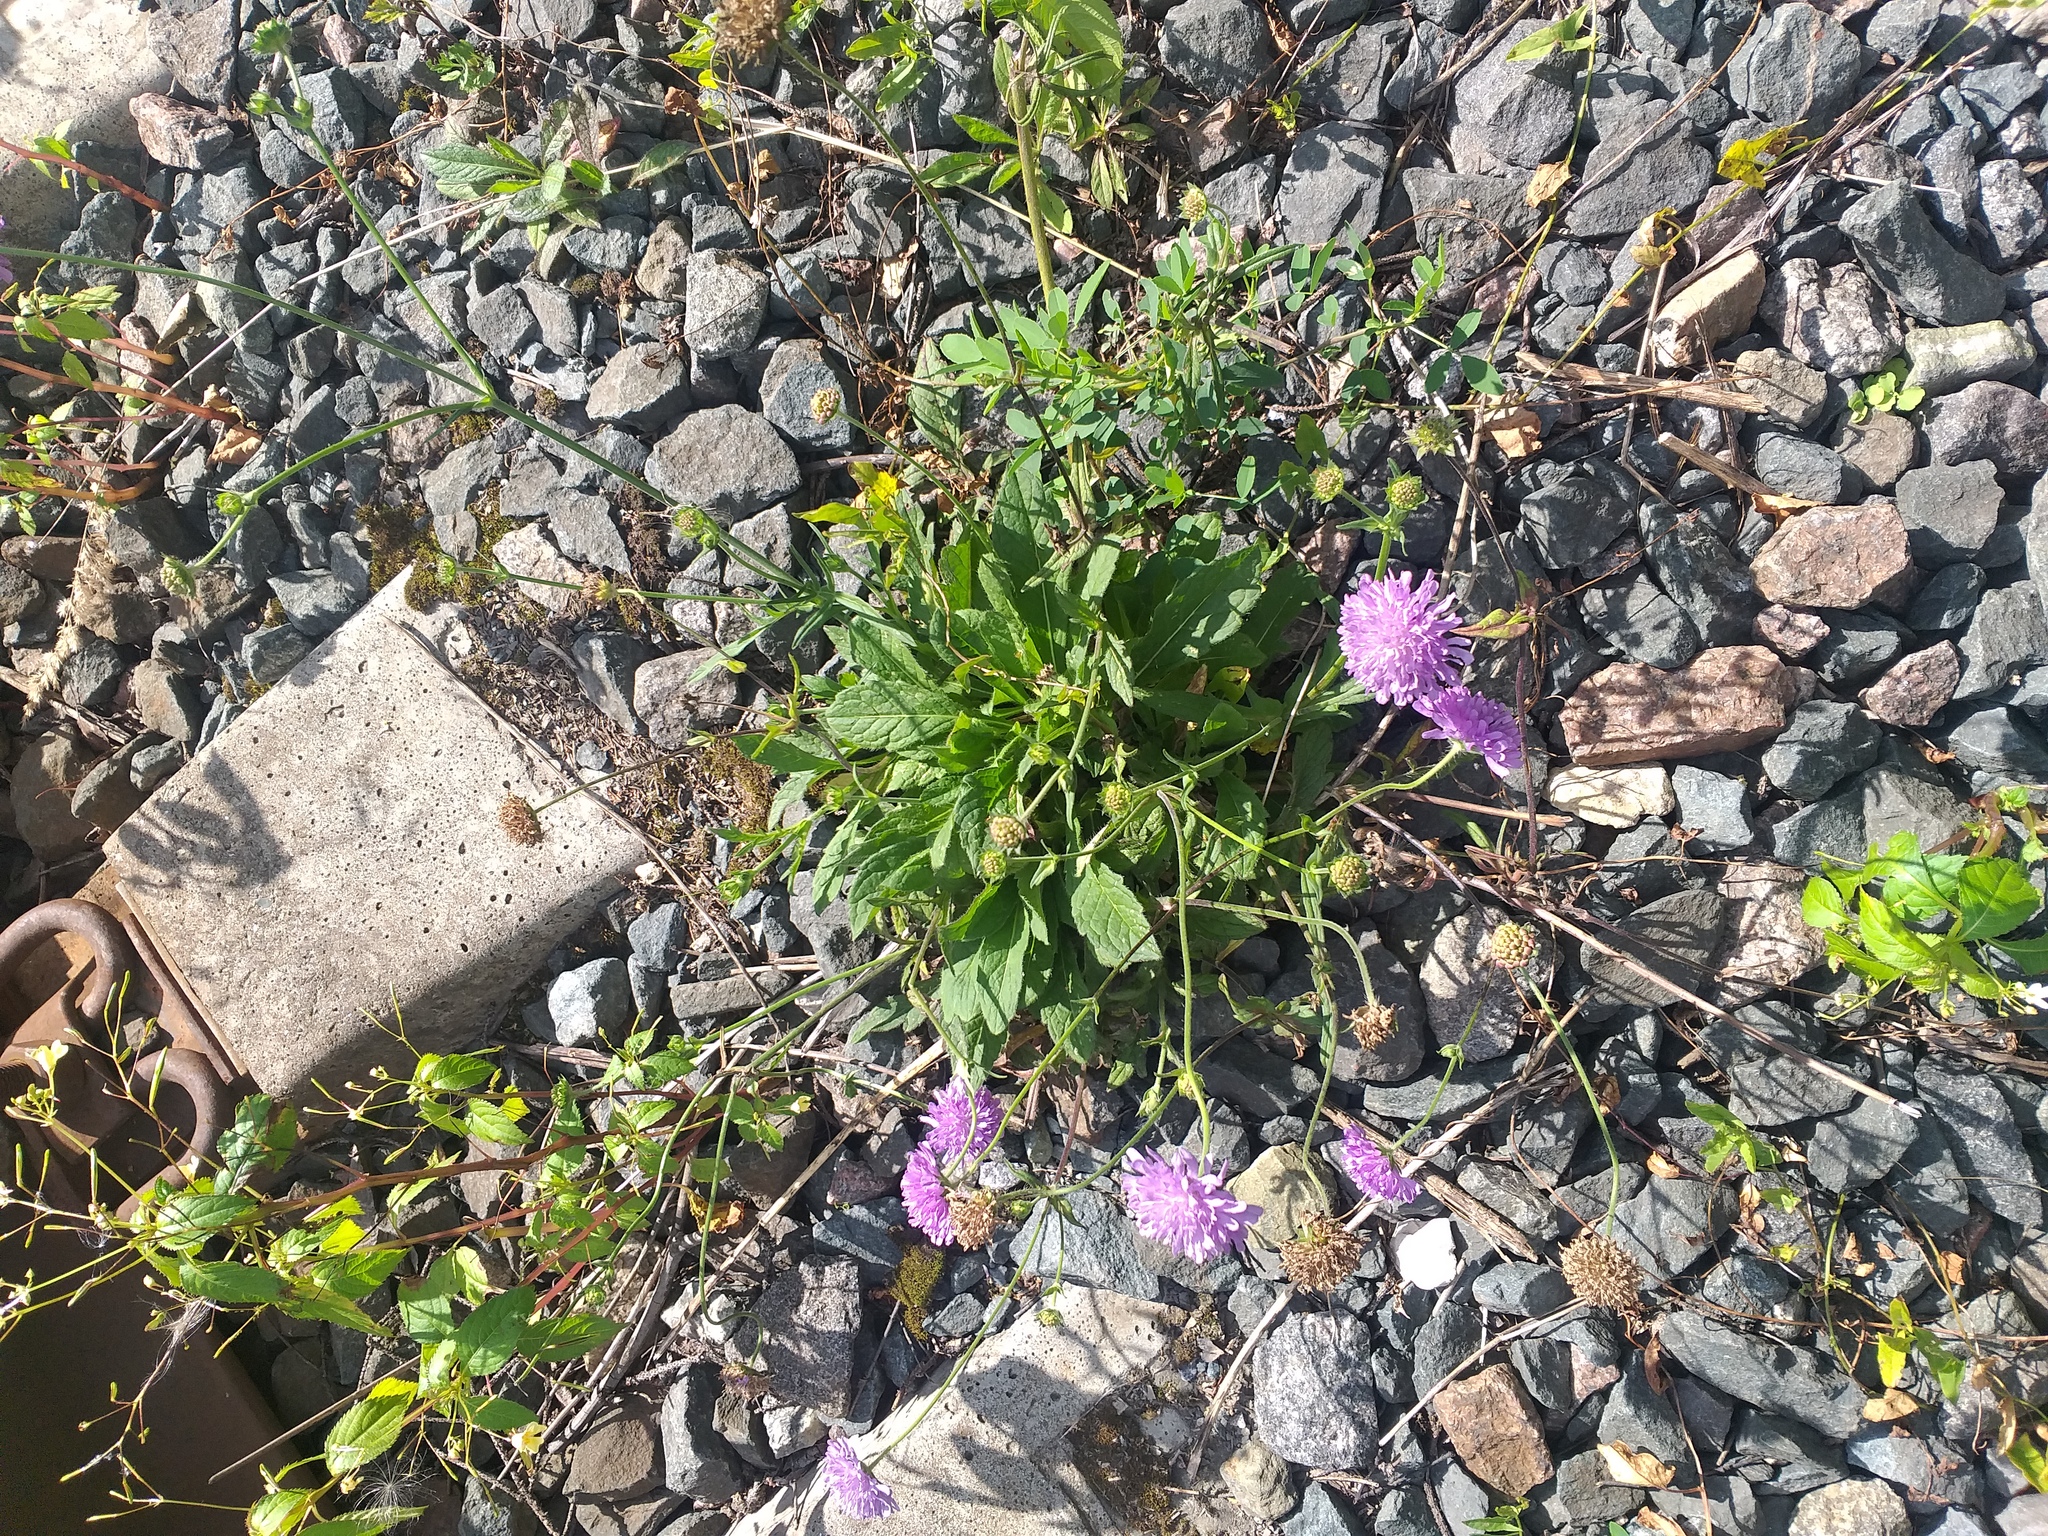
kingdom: Plantae
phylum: Tracheophyta
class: Magnoliopsida
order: Dipsacales
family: Caprifoliaceae
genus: Knautia
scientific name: Knautia arvensis
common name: Field scabiosa
